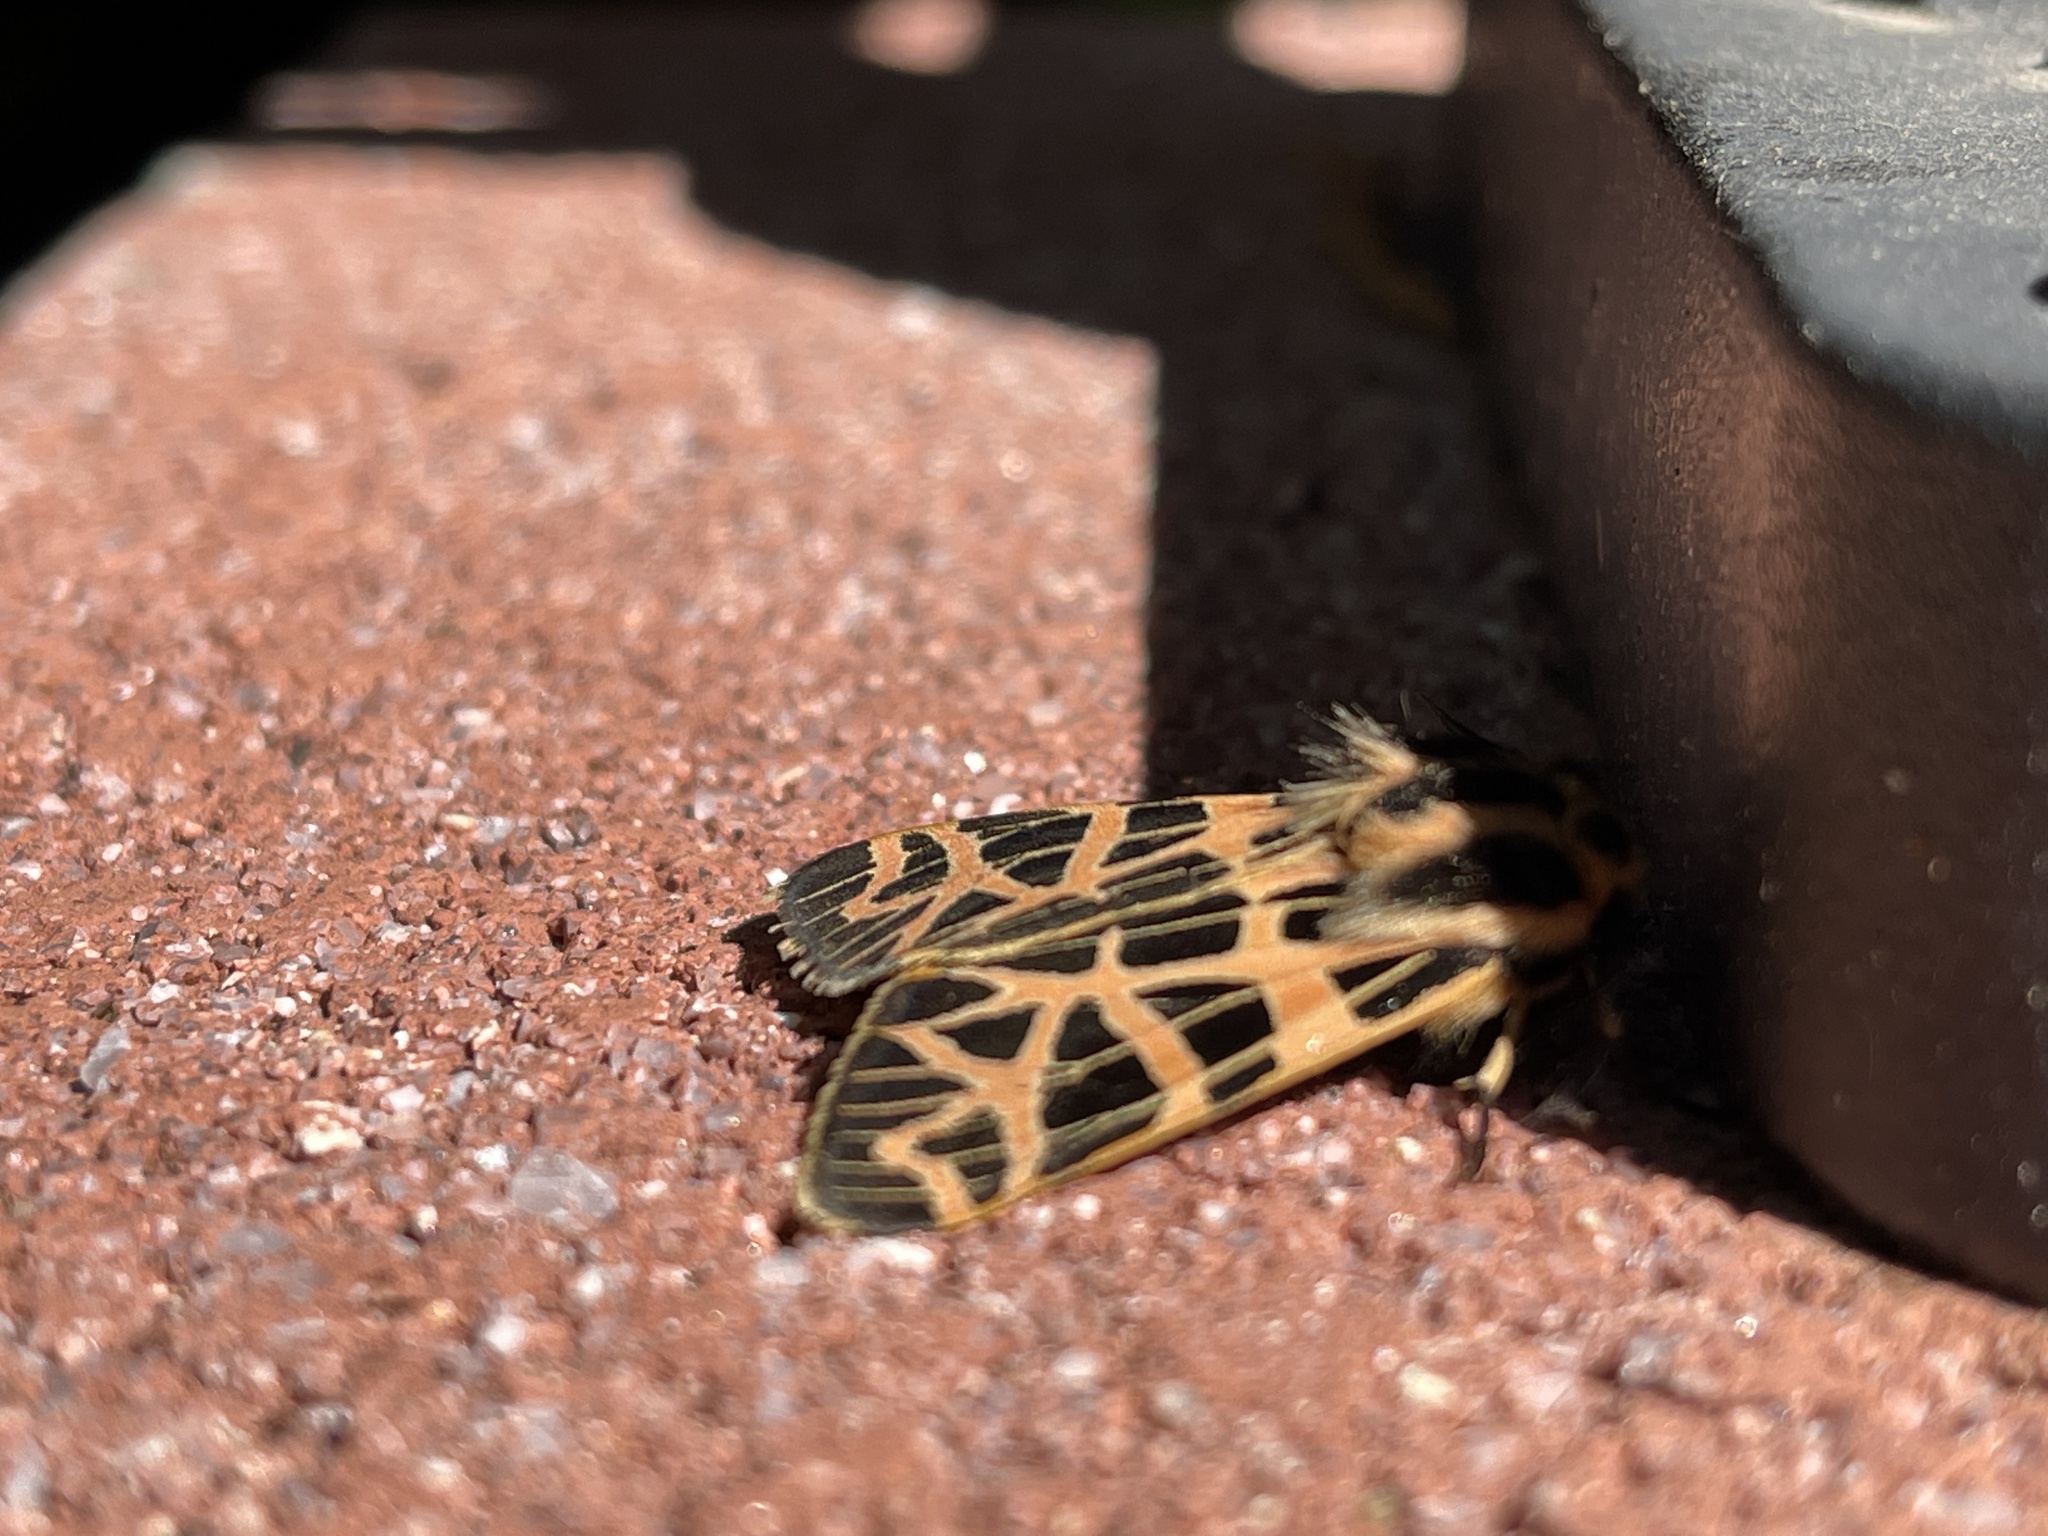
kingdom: Animalia
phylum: Arthropoda
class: Insecta
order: Lepidoptera
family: Erebidae
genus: Apantesis
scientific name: Apantesis
